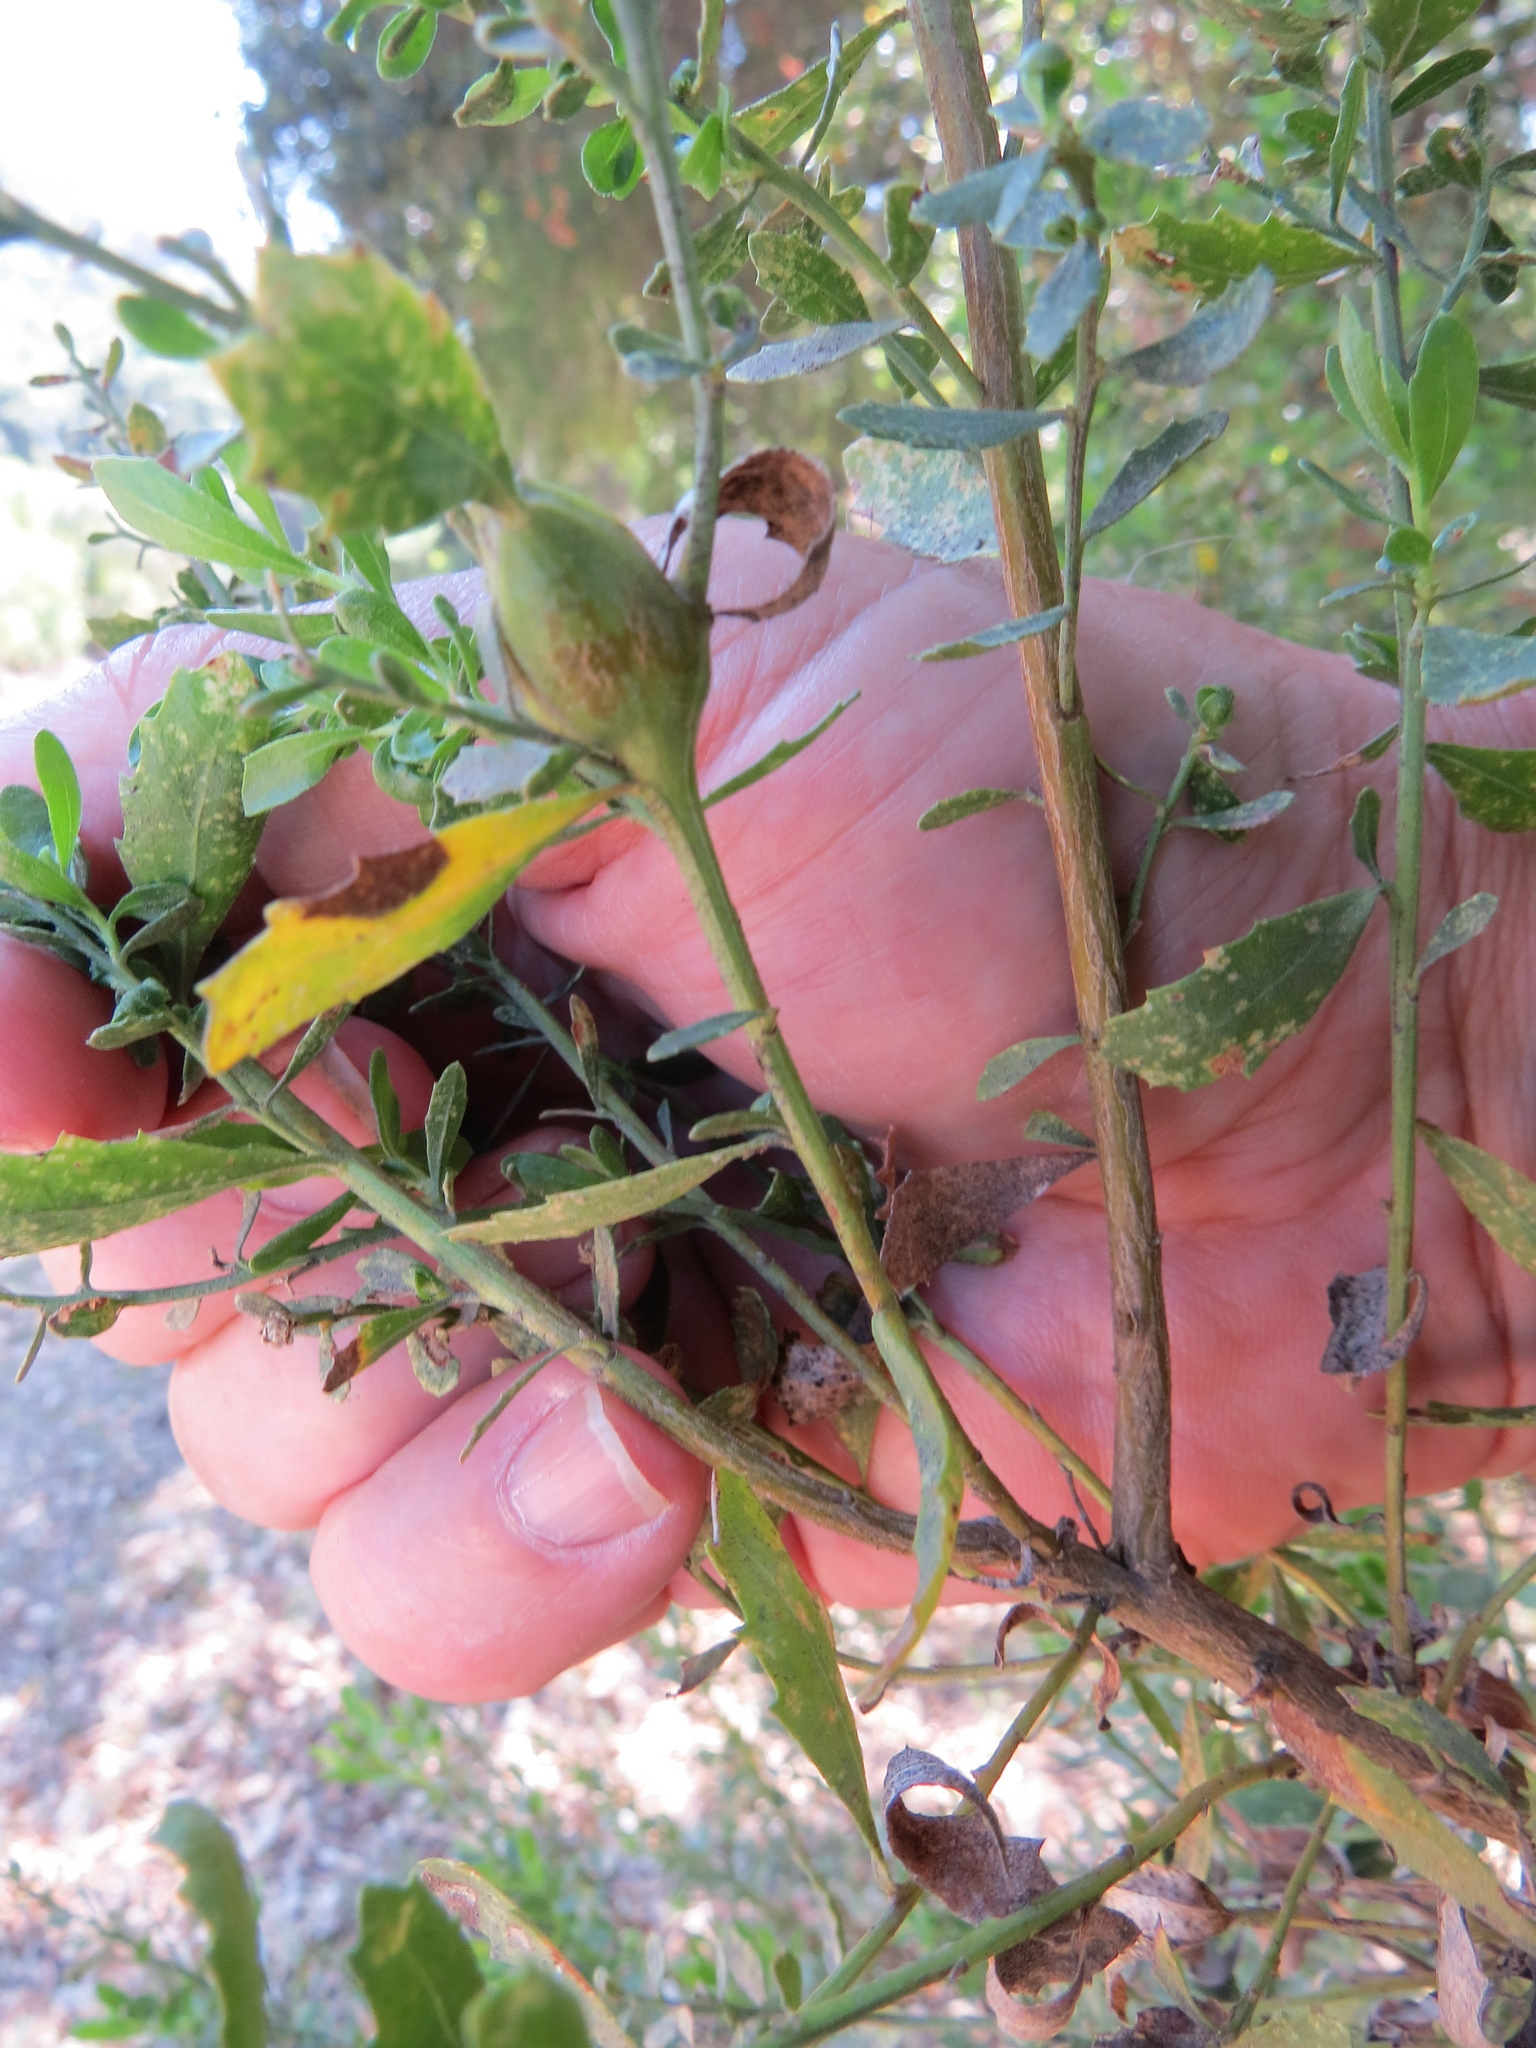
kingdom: Animalia
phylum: Arthropoda
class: Insecta
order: Lepidoptera
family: Gelechiidae
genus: Gnorimoschema
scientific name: Gnorimoschema baccharisella
